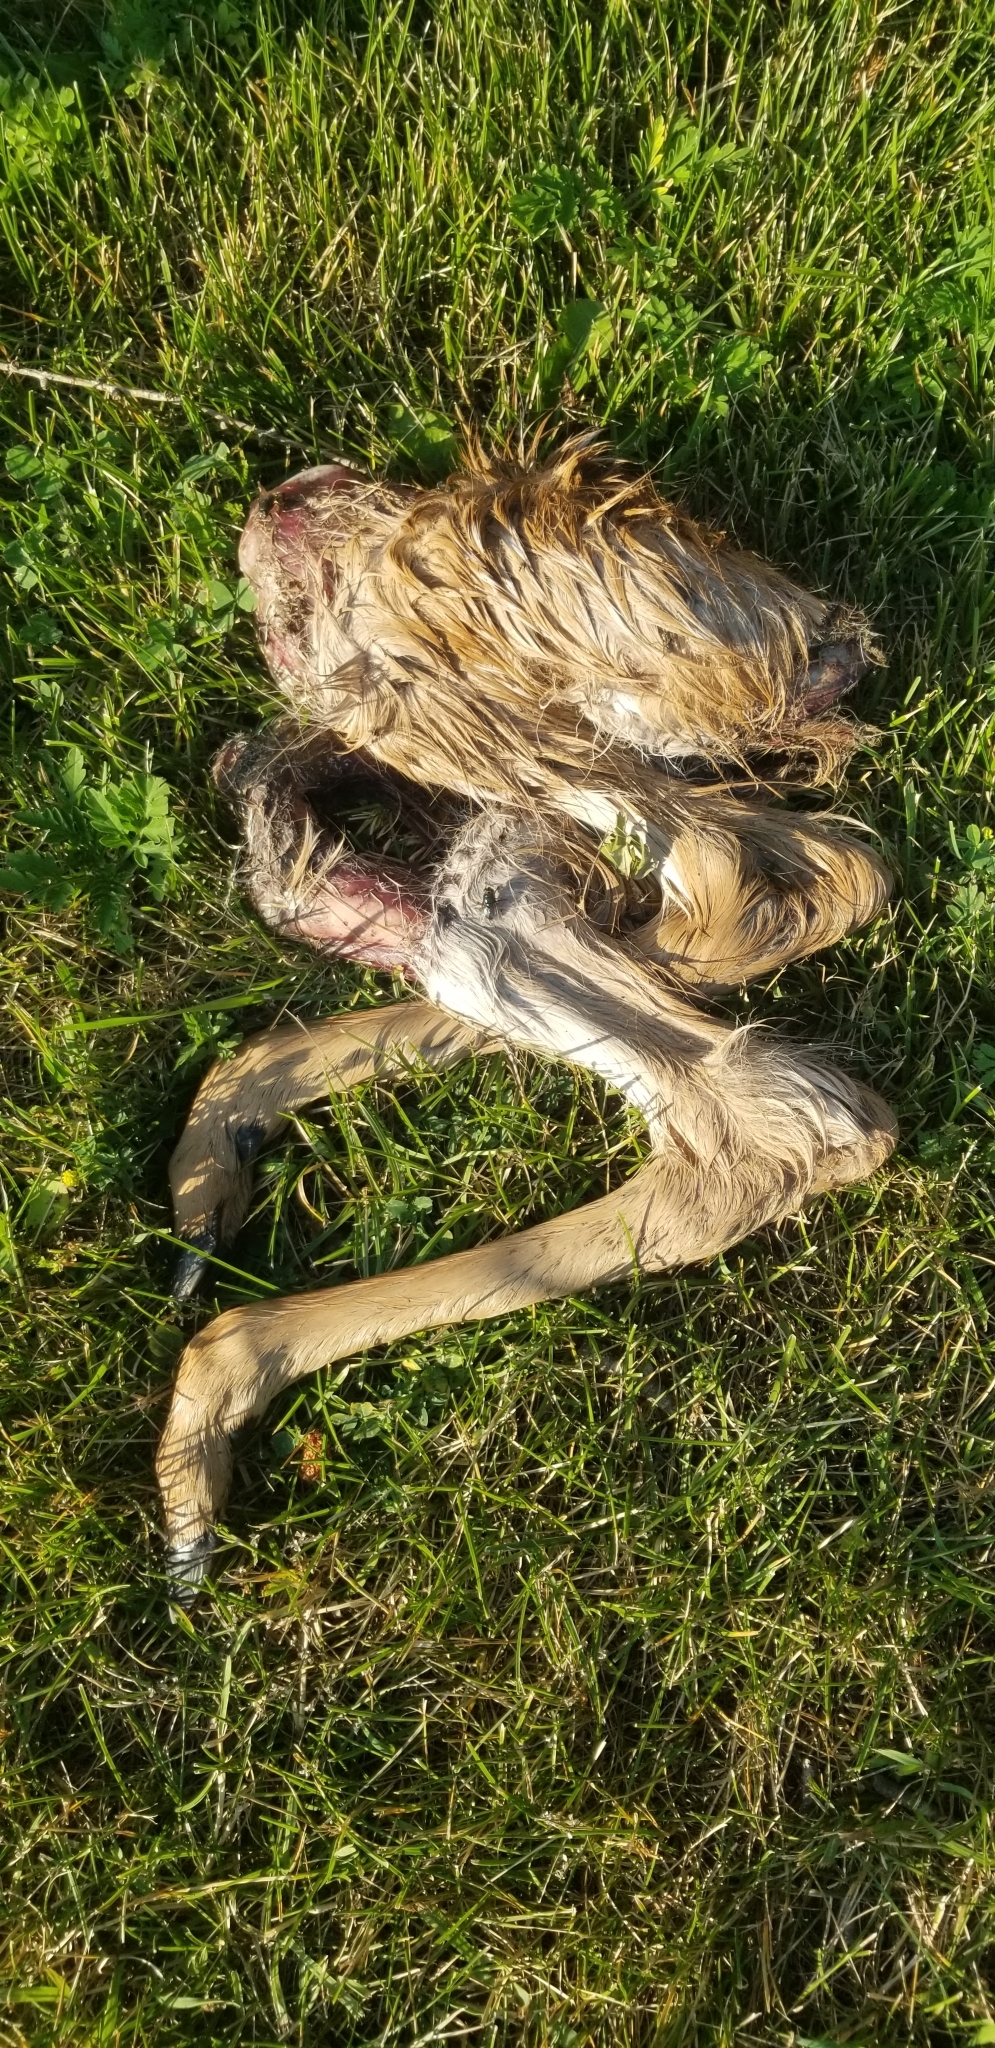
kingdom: Animalia
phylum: Chordata
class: Mammalia
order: Artiodactyla
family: Cervidae
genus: Odocoileus
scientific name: Odocoileus virginianus
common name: White-tailed deer
